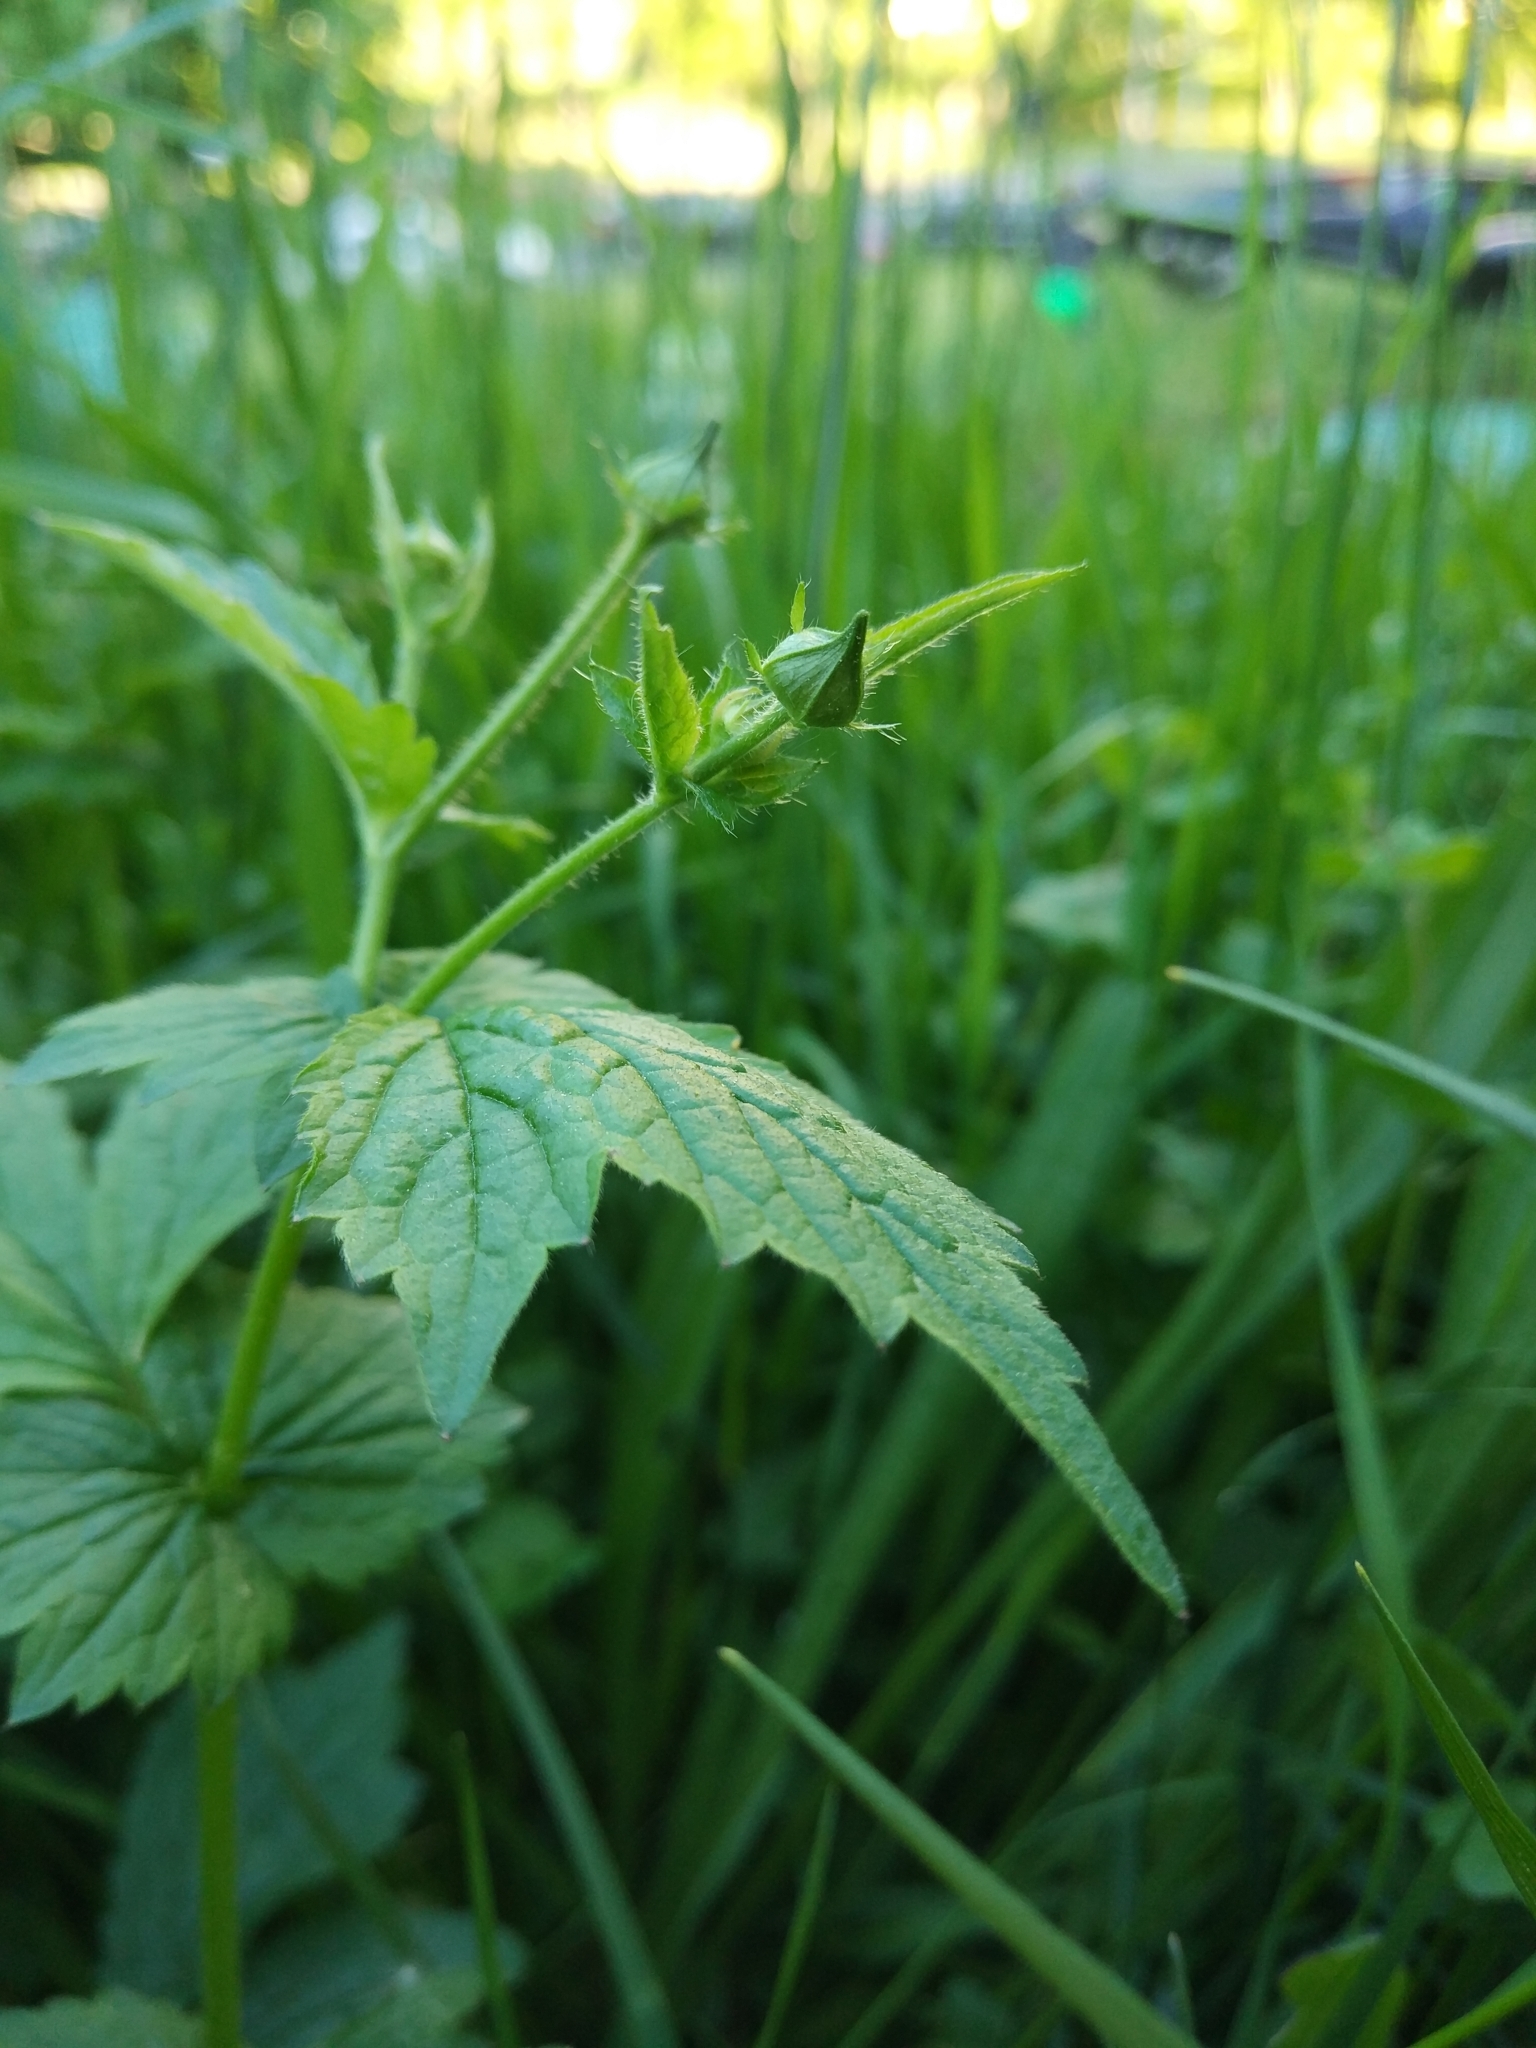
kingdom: Plantae
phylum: Tracheophyta
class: Magnoliopsida
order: Rosales
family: Rosaceae
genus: Geum
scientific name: Geum urbanum
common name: Wood avens
